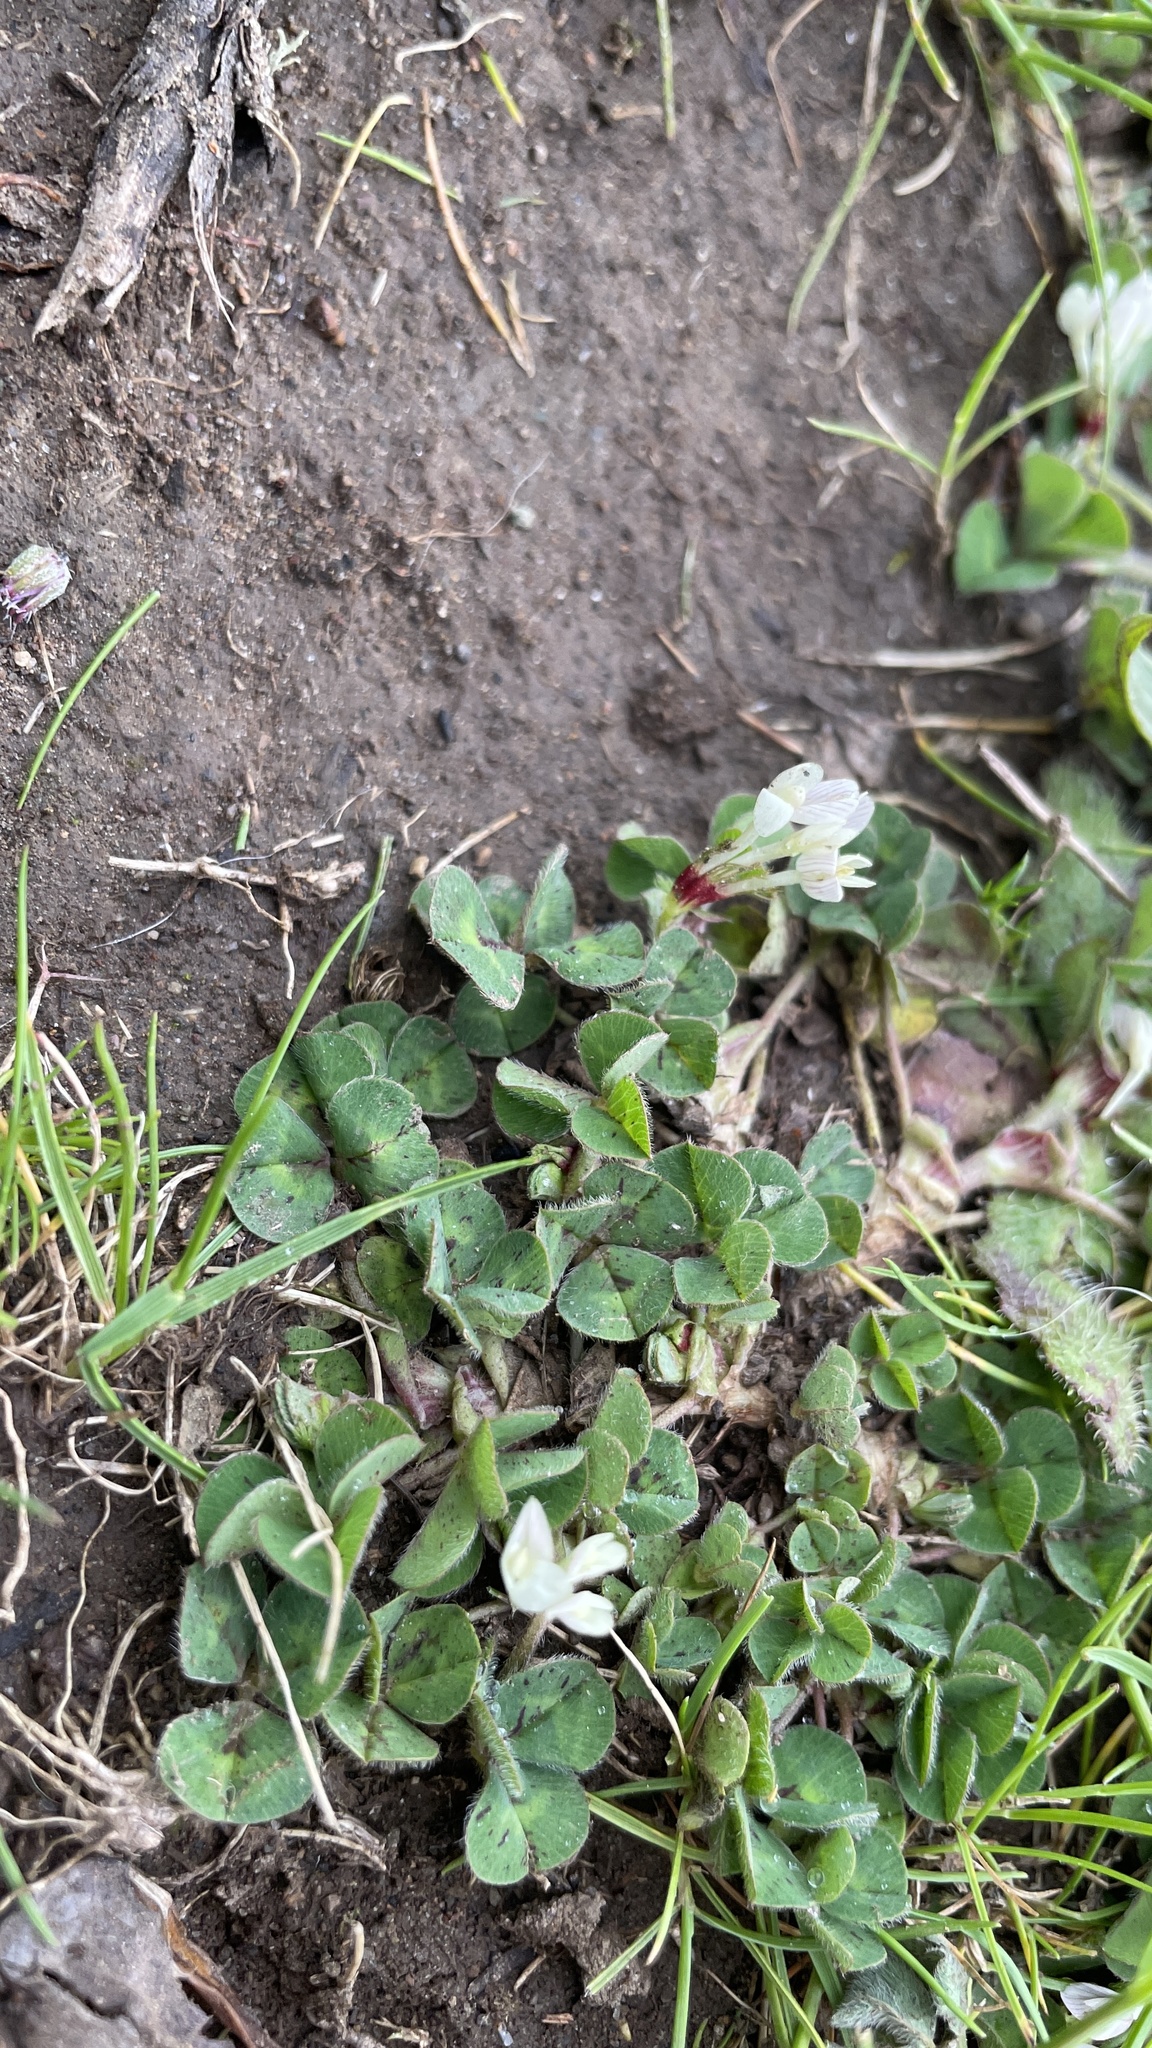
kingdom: Plantae
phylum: Tracheophyta
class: Magnoliopsida
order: Fabales
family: Fabaceae
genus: Trifolium
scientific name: Trifolium subterraneum
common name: Subterranean clover
